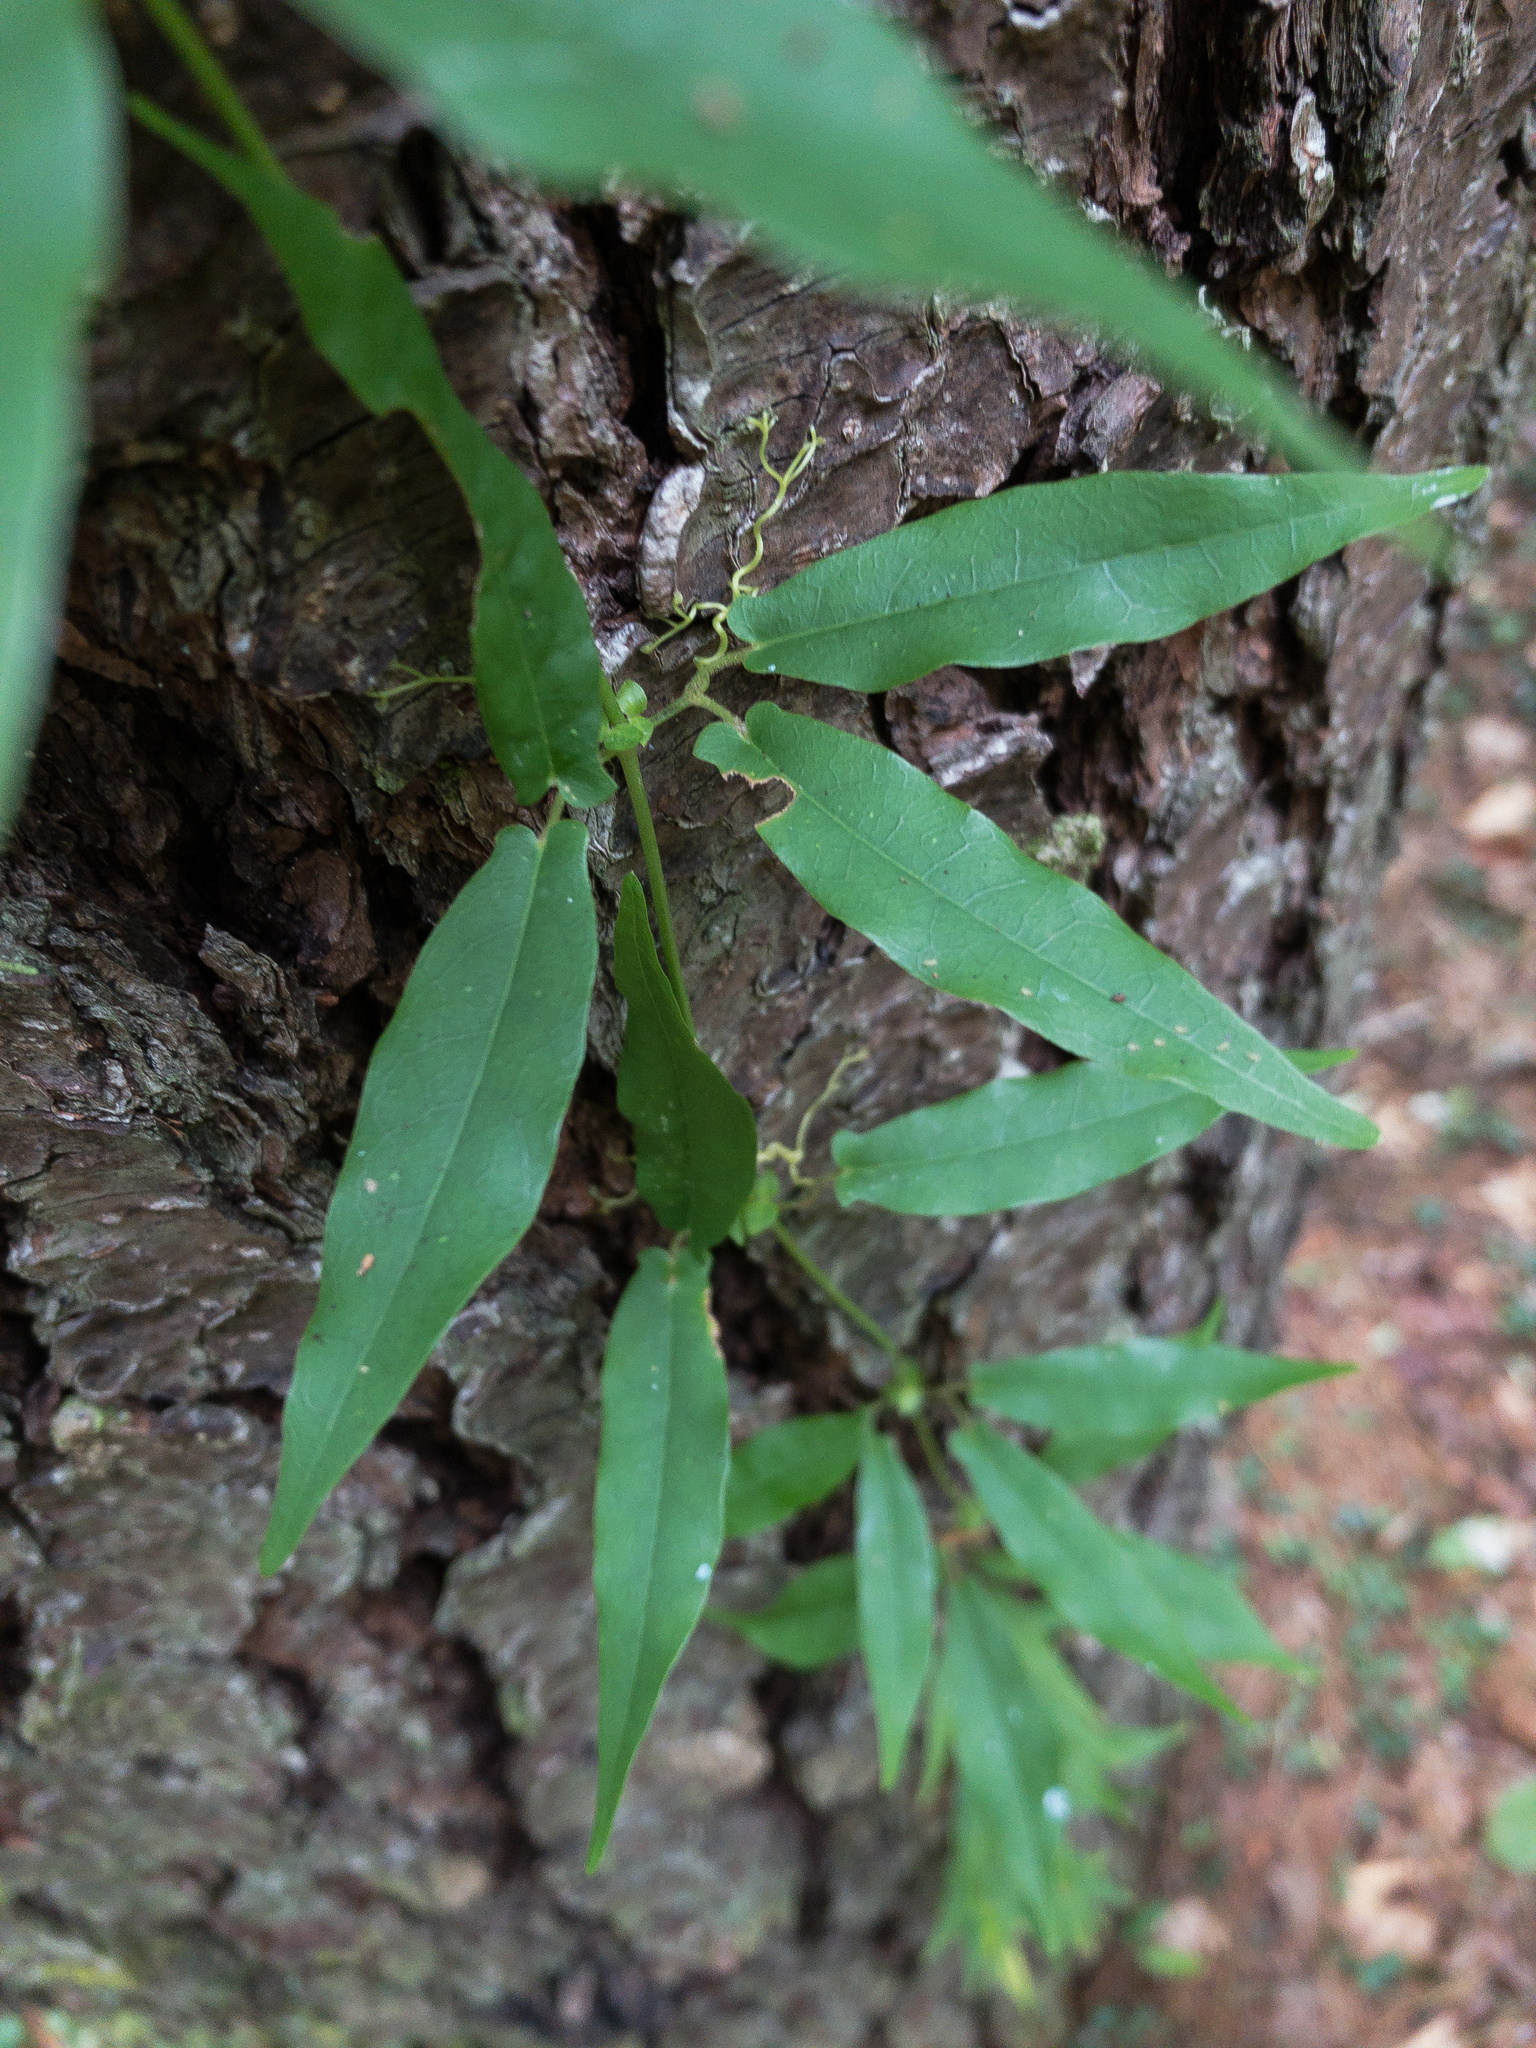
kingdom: Plantae
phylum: Tracheophyta
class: Magnoliopsida
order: Lamiales
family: Bignoniaceae
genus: Bignonia
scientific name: Bignonia capreolata
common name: Crossvine
